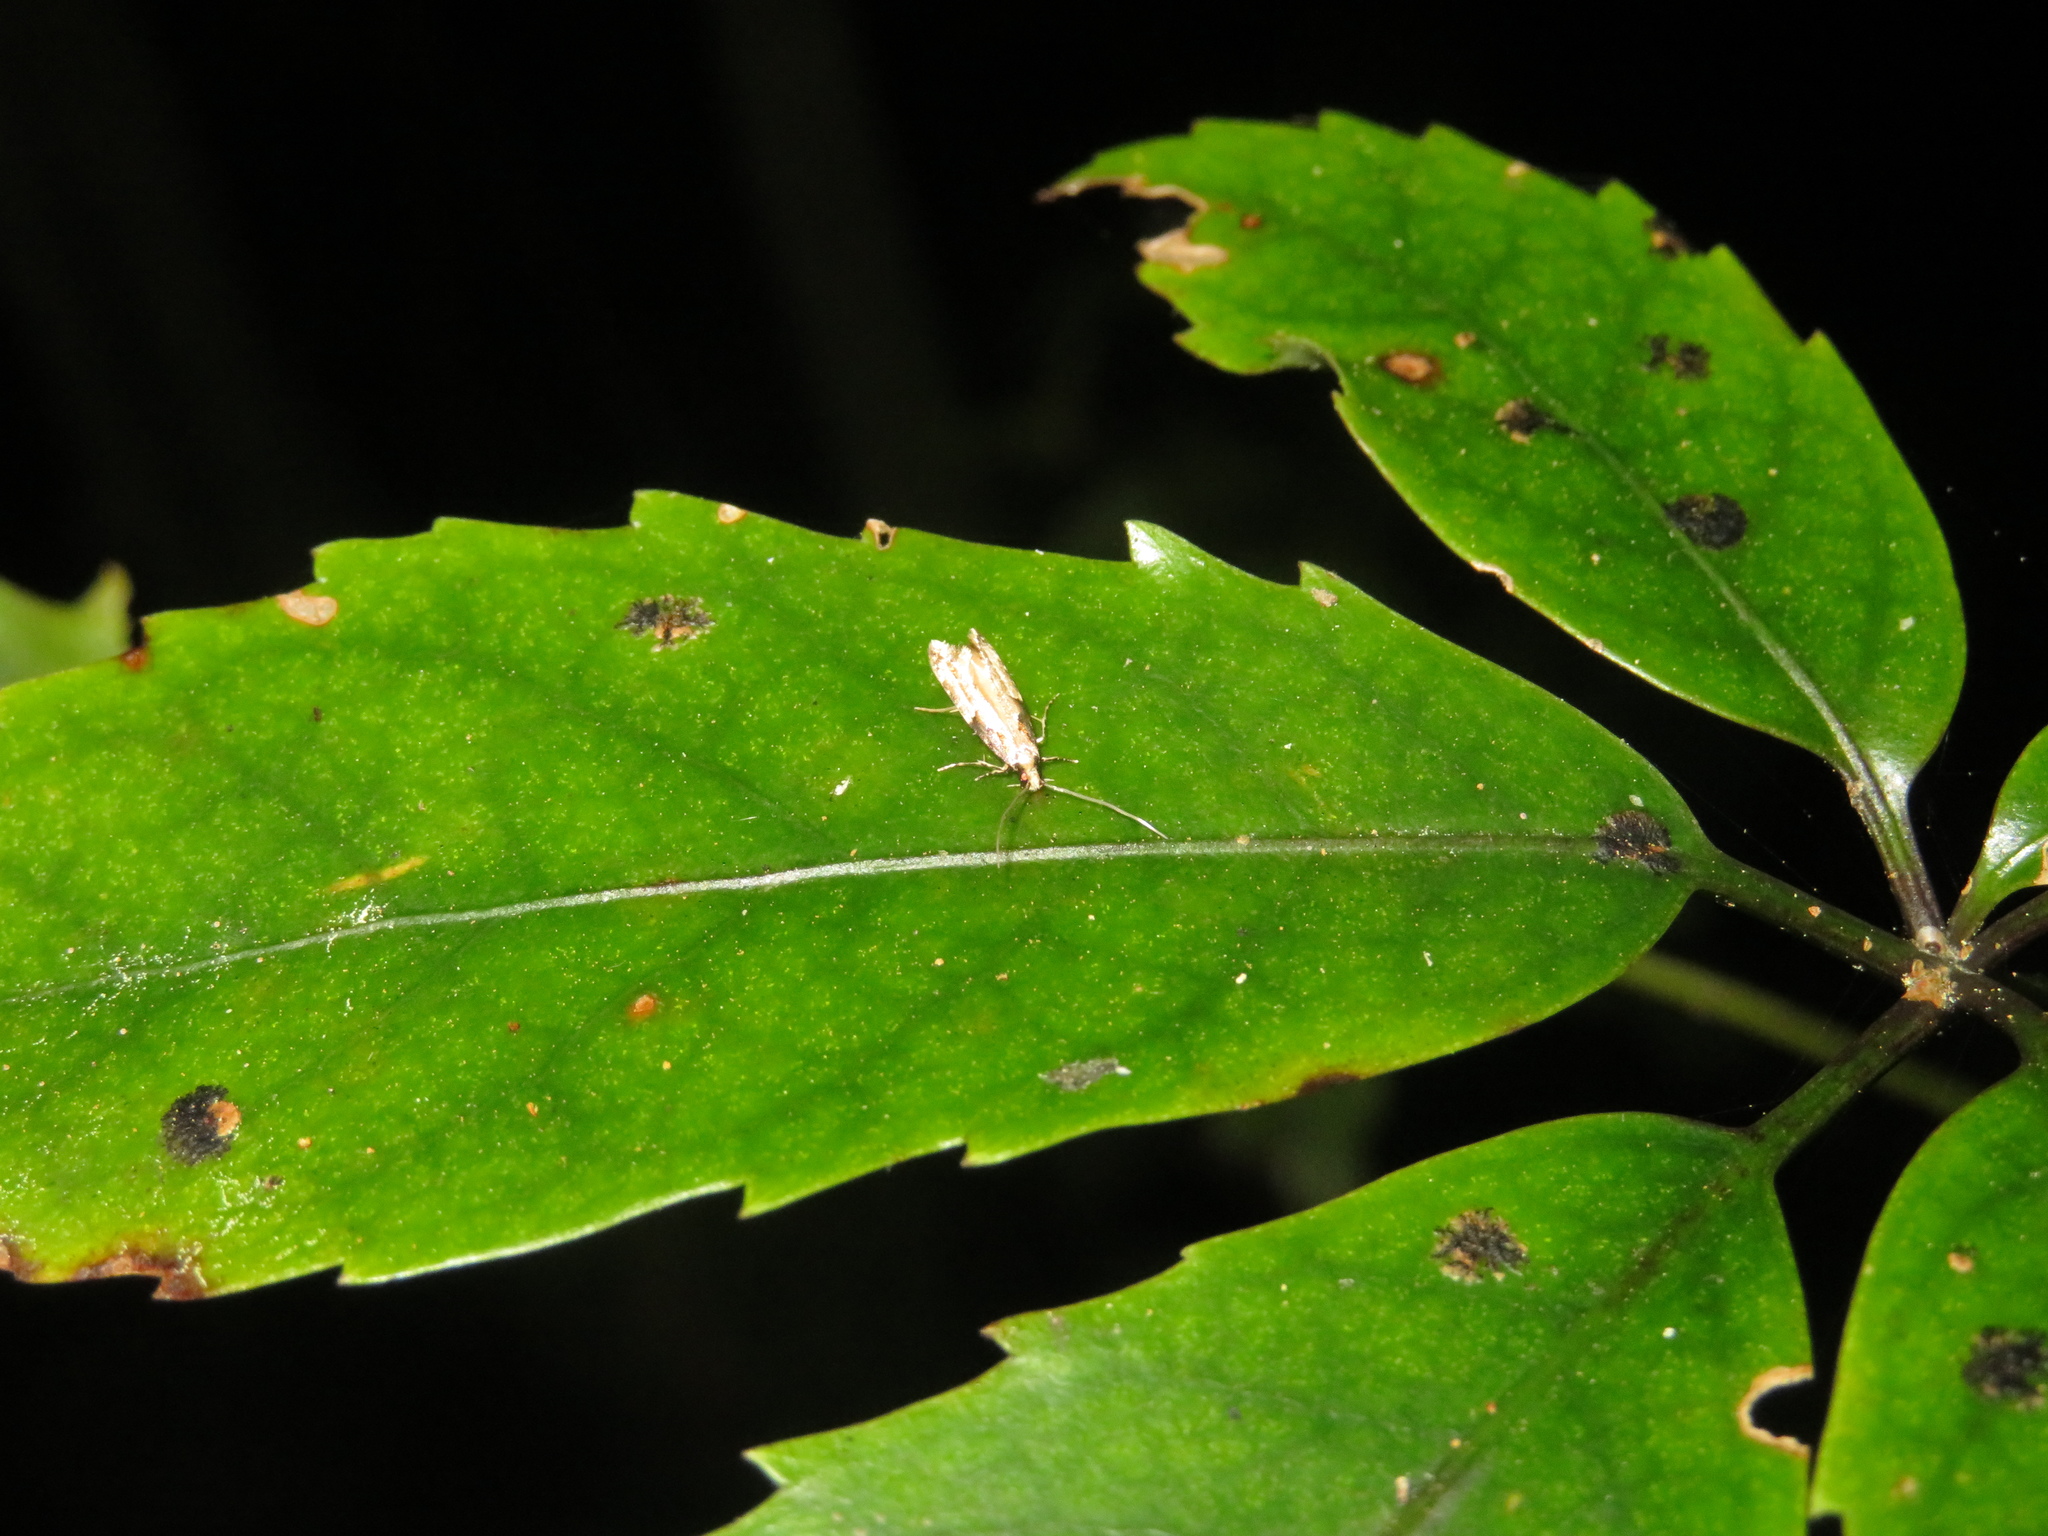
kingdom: Animalia
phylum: Arthropoda
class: Insecta
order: Lepidoptera
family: Tineidae
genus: Crypsitricha
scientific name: Crypsitricha pharotoma
